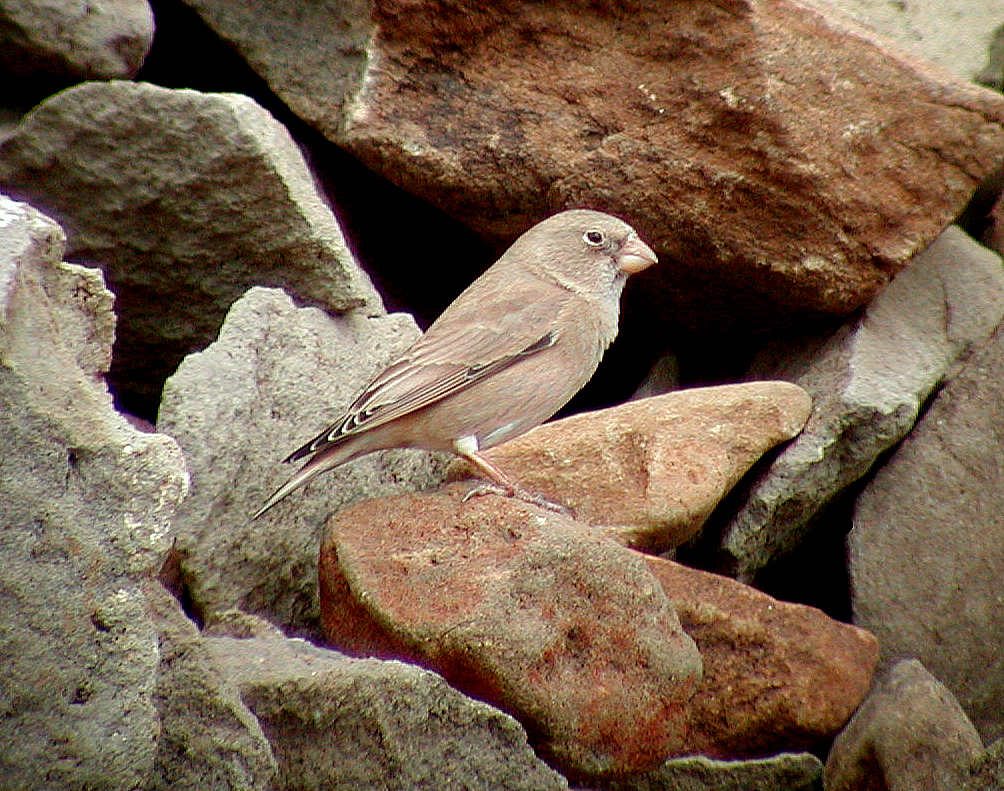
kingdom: Animalia
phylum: Chordata
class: Aves
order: Passeriformes
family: Fringillidae
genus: Bucanetes
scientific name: Bucanetes githagineus
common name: Trumpeter finch
